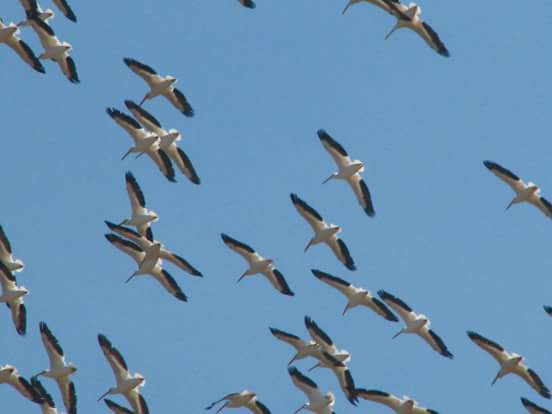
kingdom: Animalia
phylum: Chordata
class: Aves
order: Pelecaniformes
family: Pelecanidae
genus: Pelecanus
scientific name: Pelecanus erythrorhynchos
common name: American white pelican
